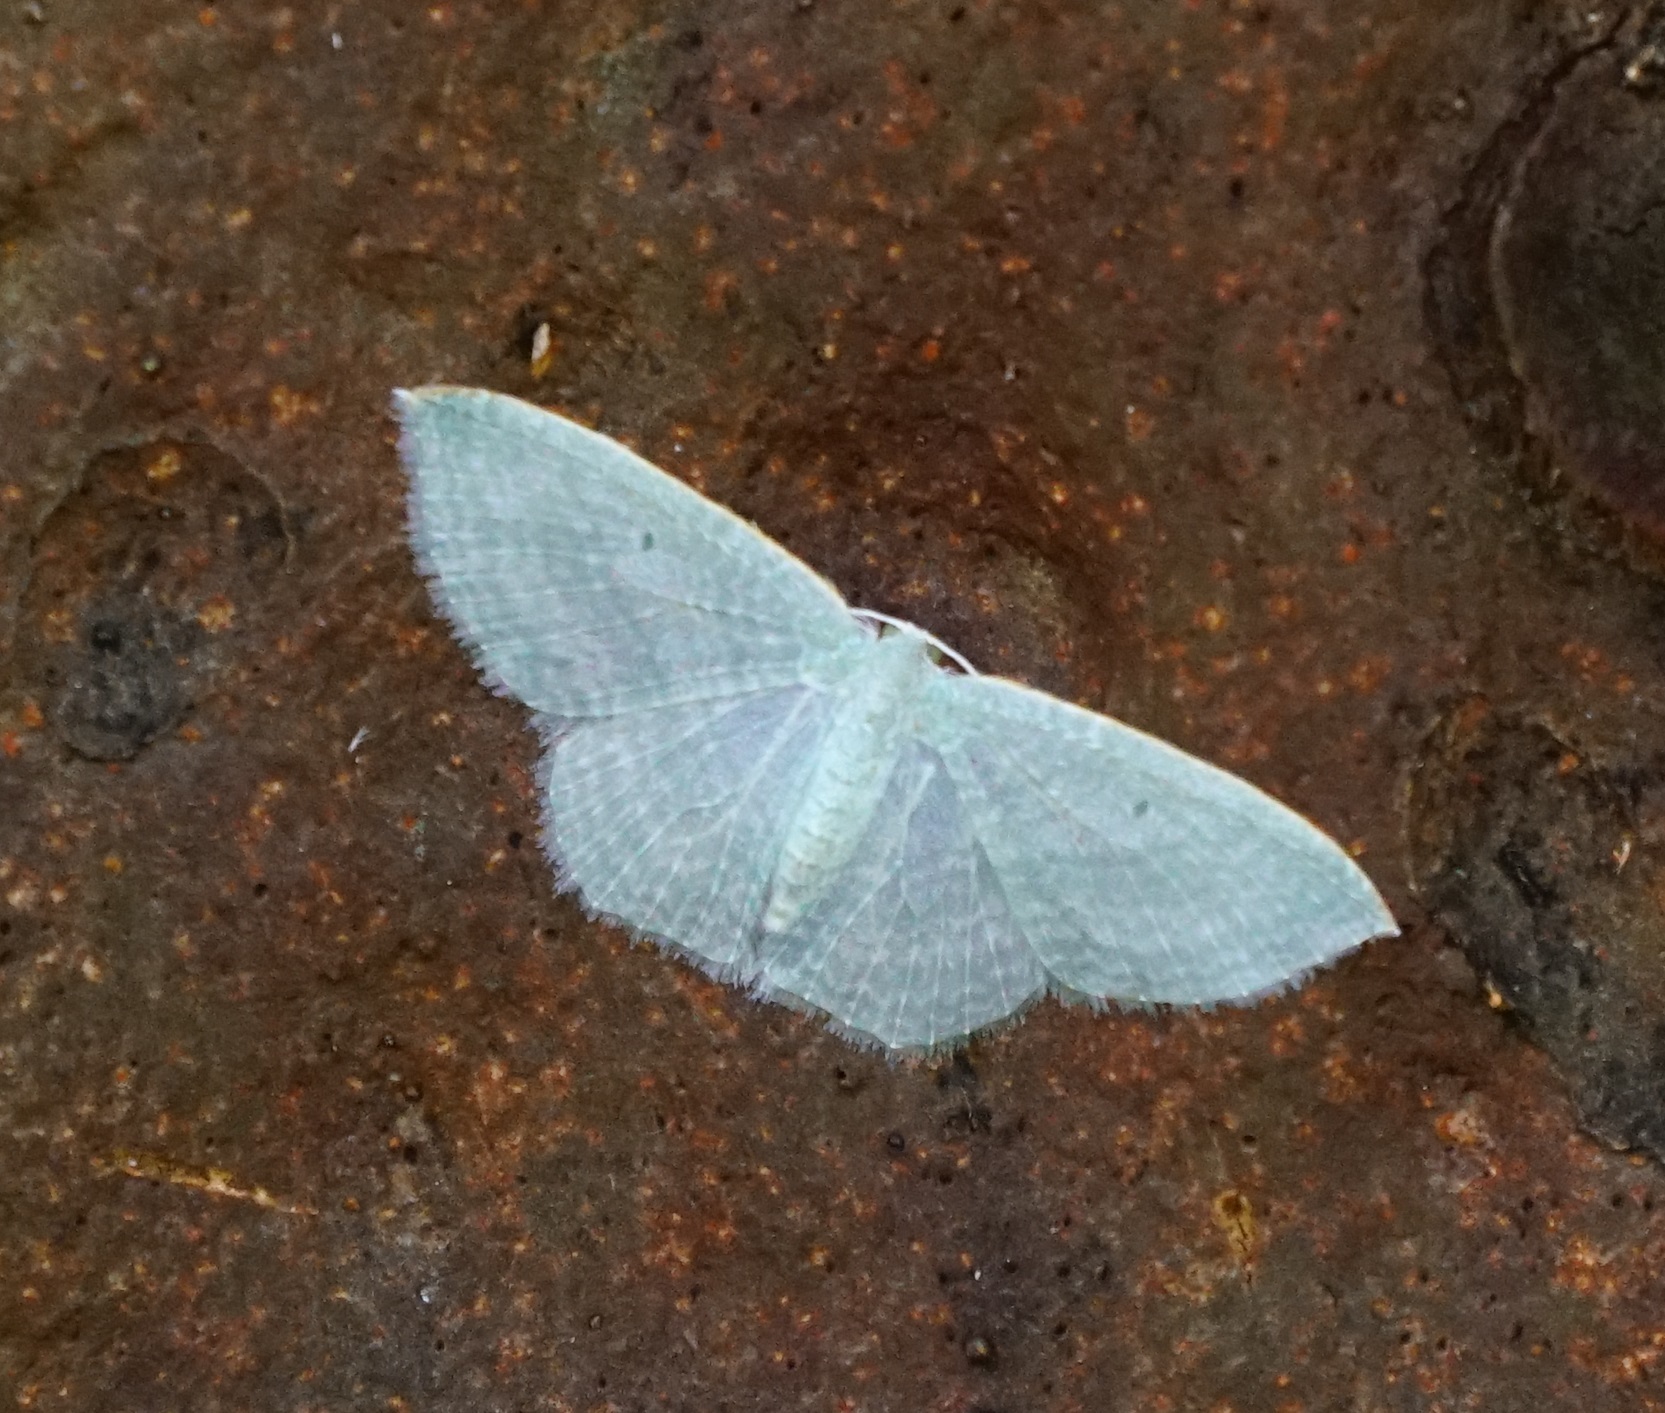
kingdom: Animalia
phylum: Arthropoda
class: Insecta
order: Lepidoptera
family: Geometridae
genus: Poecilasthena
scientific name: Poecilasthena thalassias
